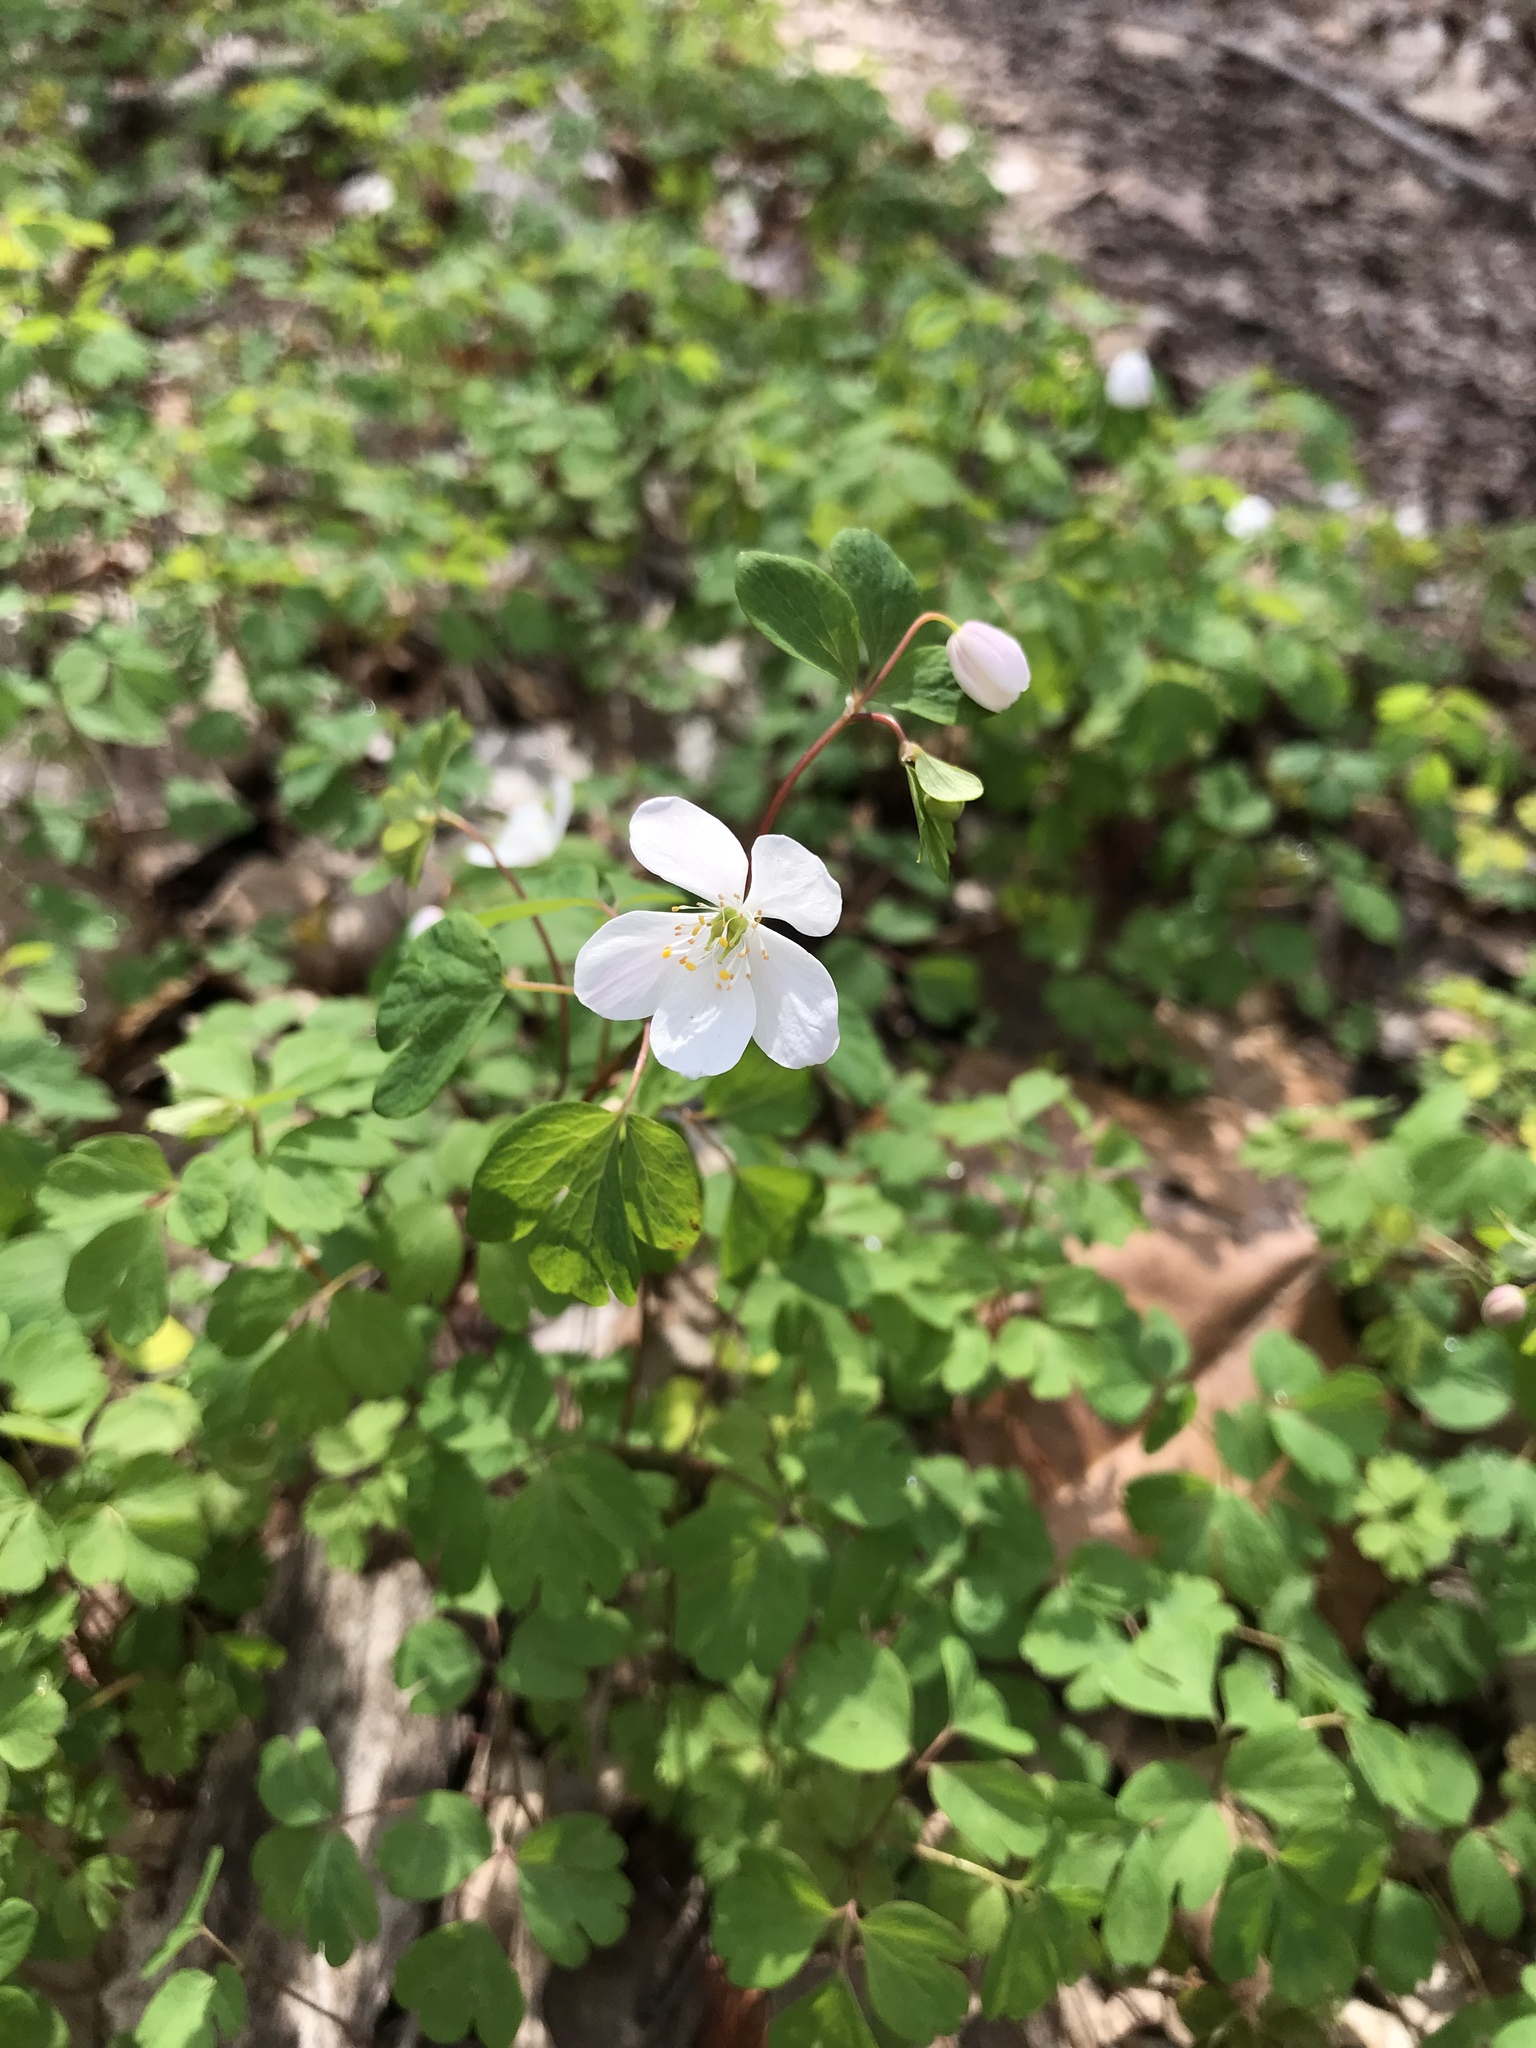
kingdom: Plantae
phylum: Tracheophyta
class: Magnoliopsida
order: Ranunculales
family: Ranunculaceae
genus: Enemion
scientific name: Enemion biternatum
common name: Eastern false rue-anemone
